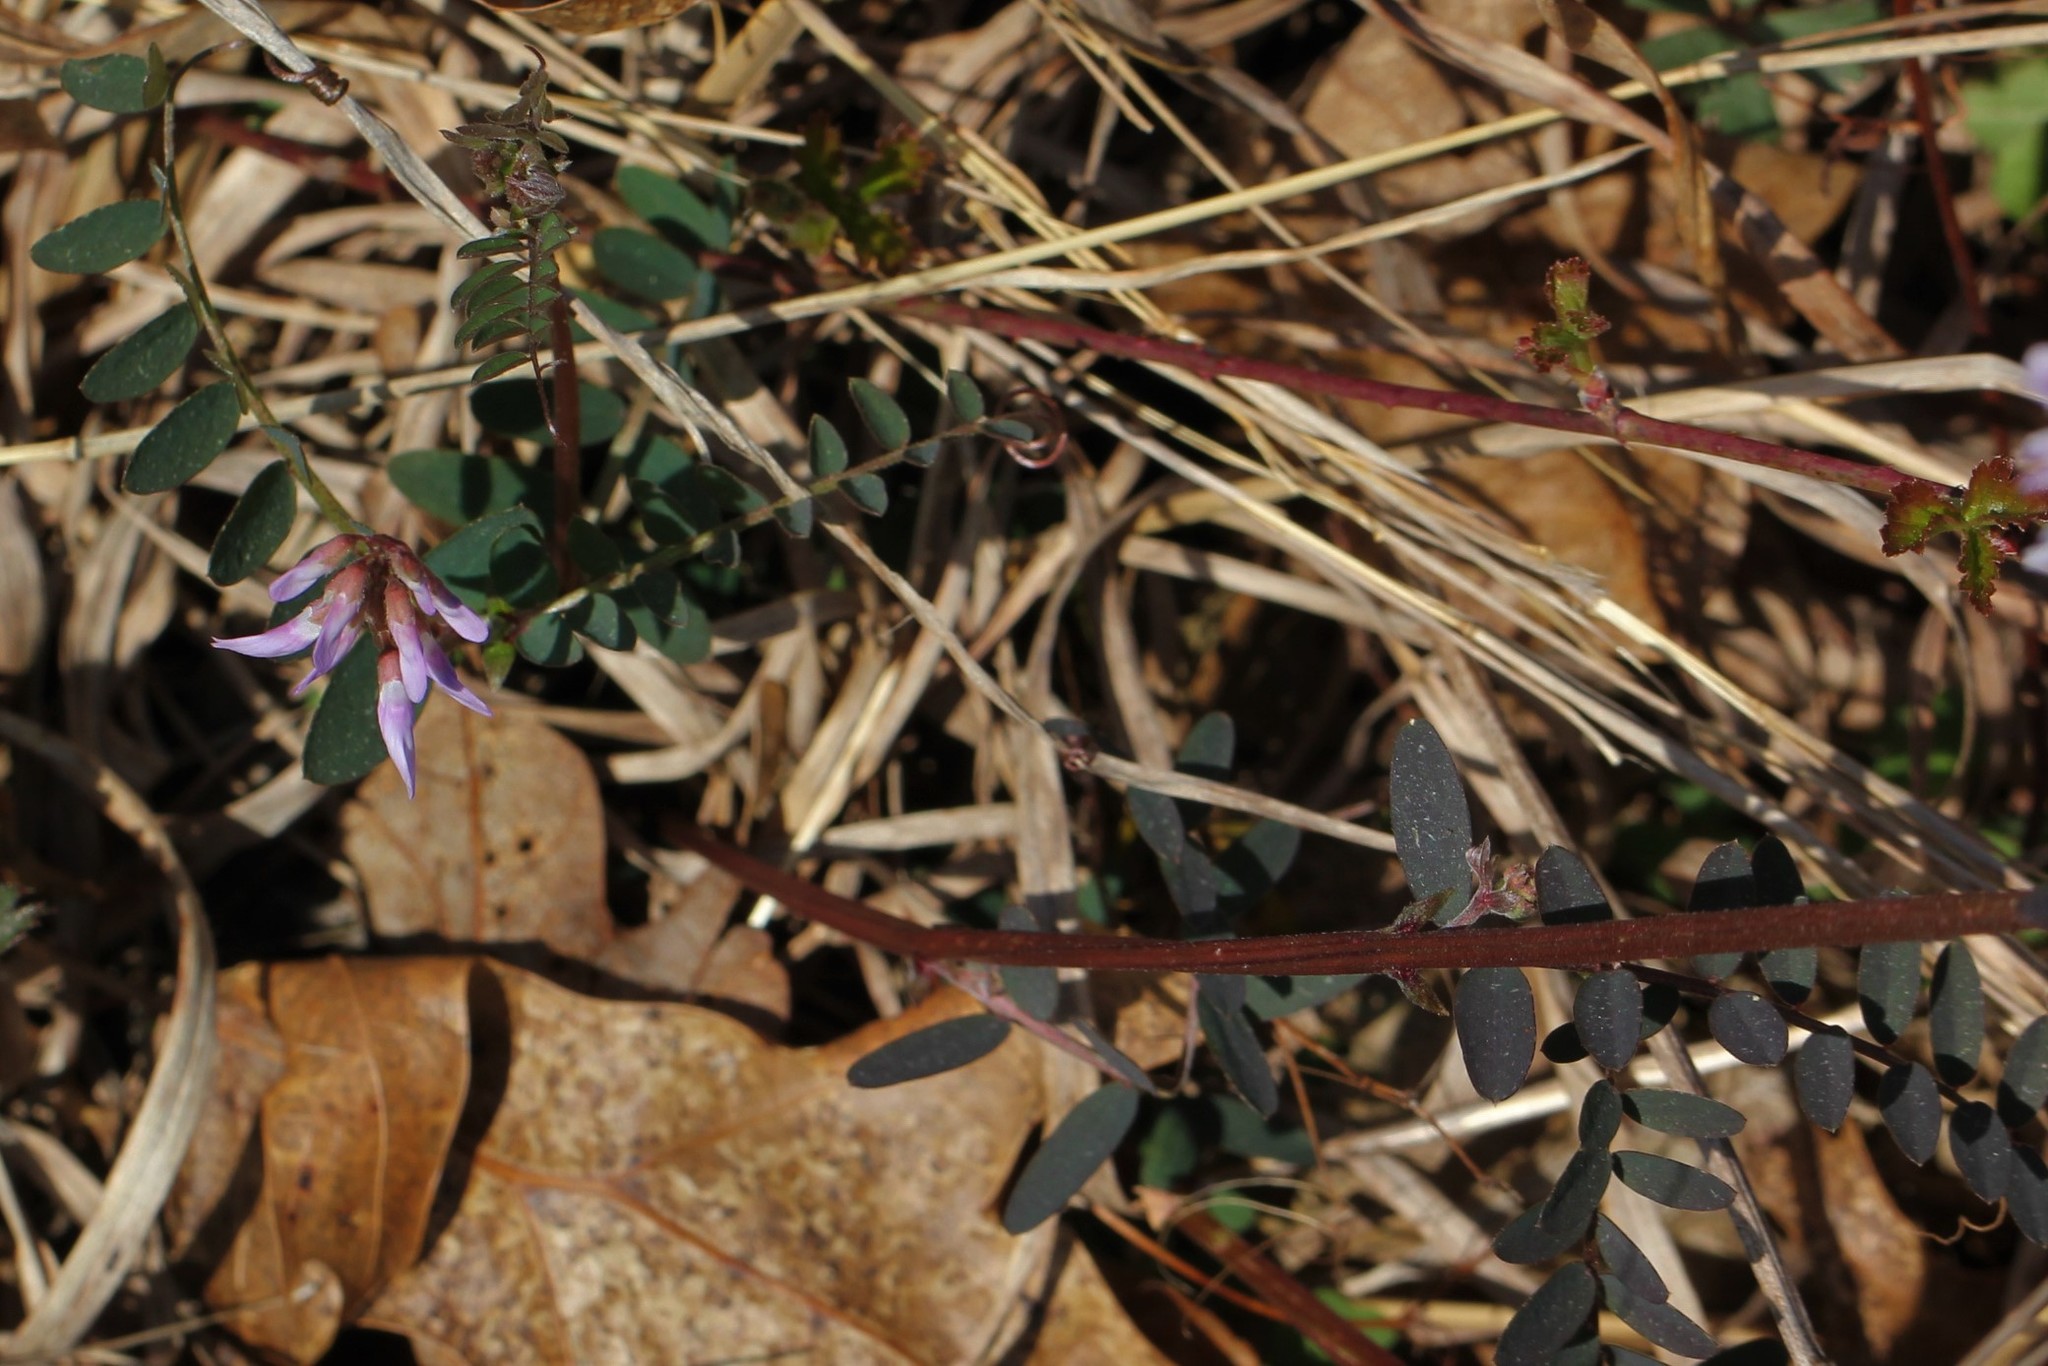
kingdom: Plantae
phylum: Tracheophyta
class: Magnoliopsida
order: Fabales
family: Fabaceae
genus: Vicia
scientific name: Vicia caroliniana
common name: Carolina vetch
